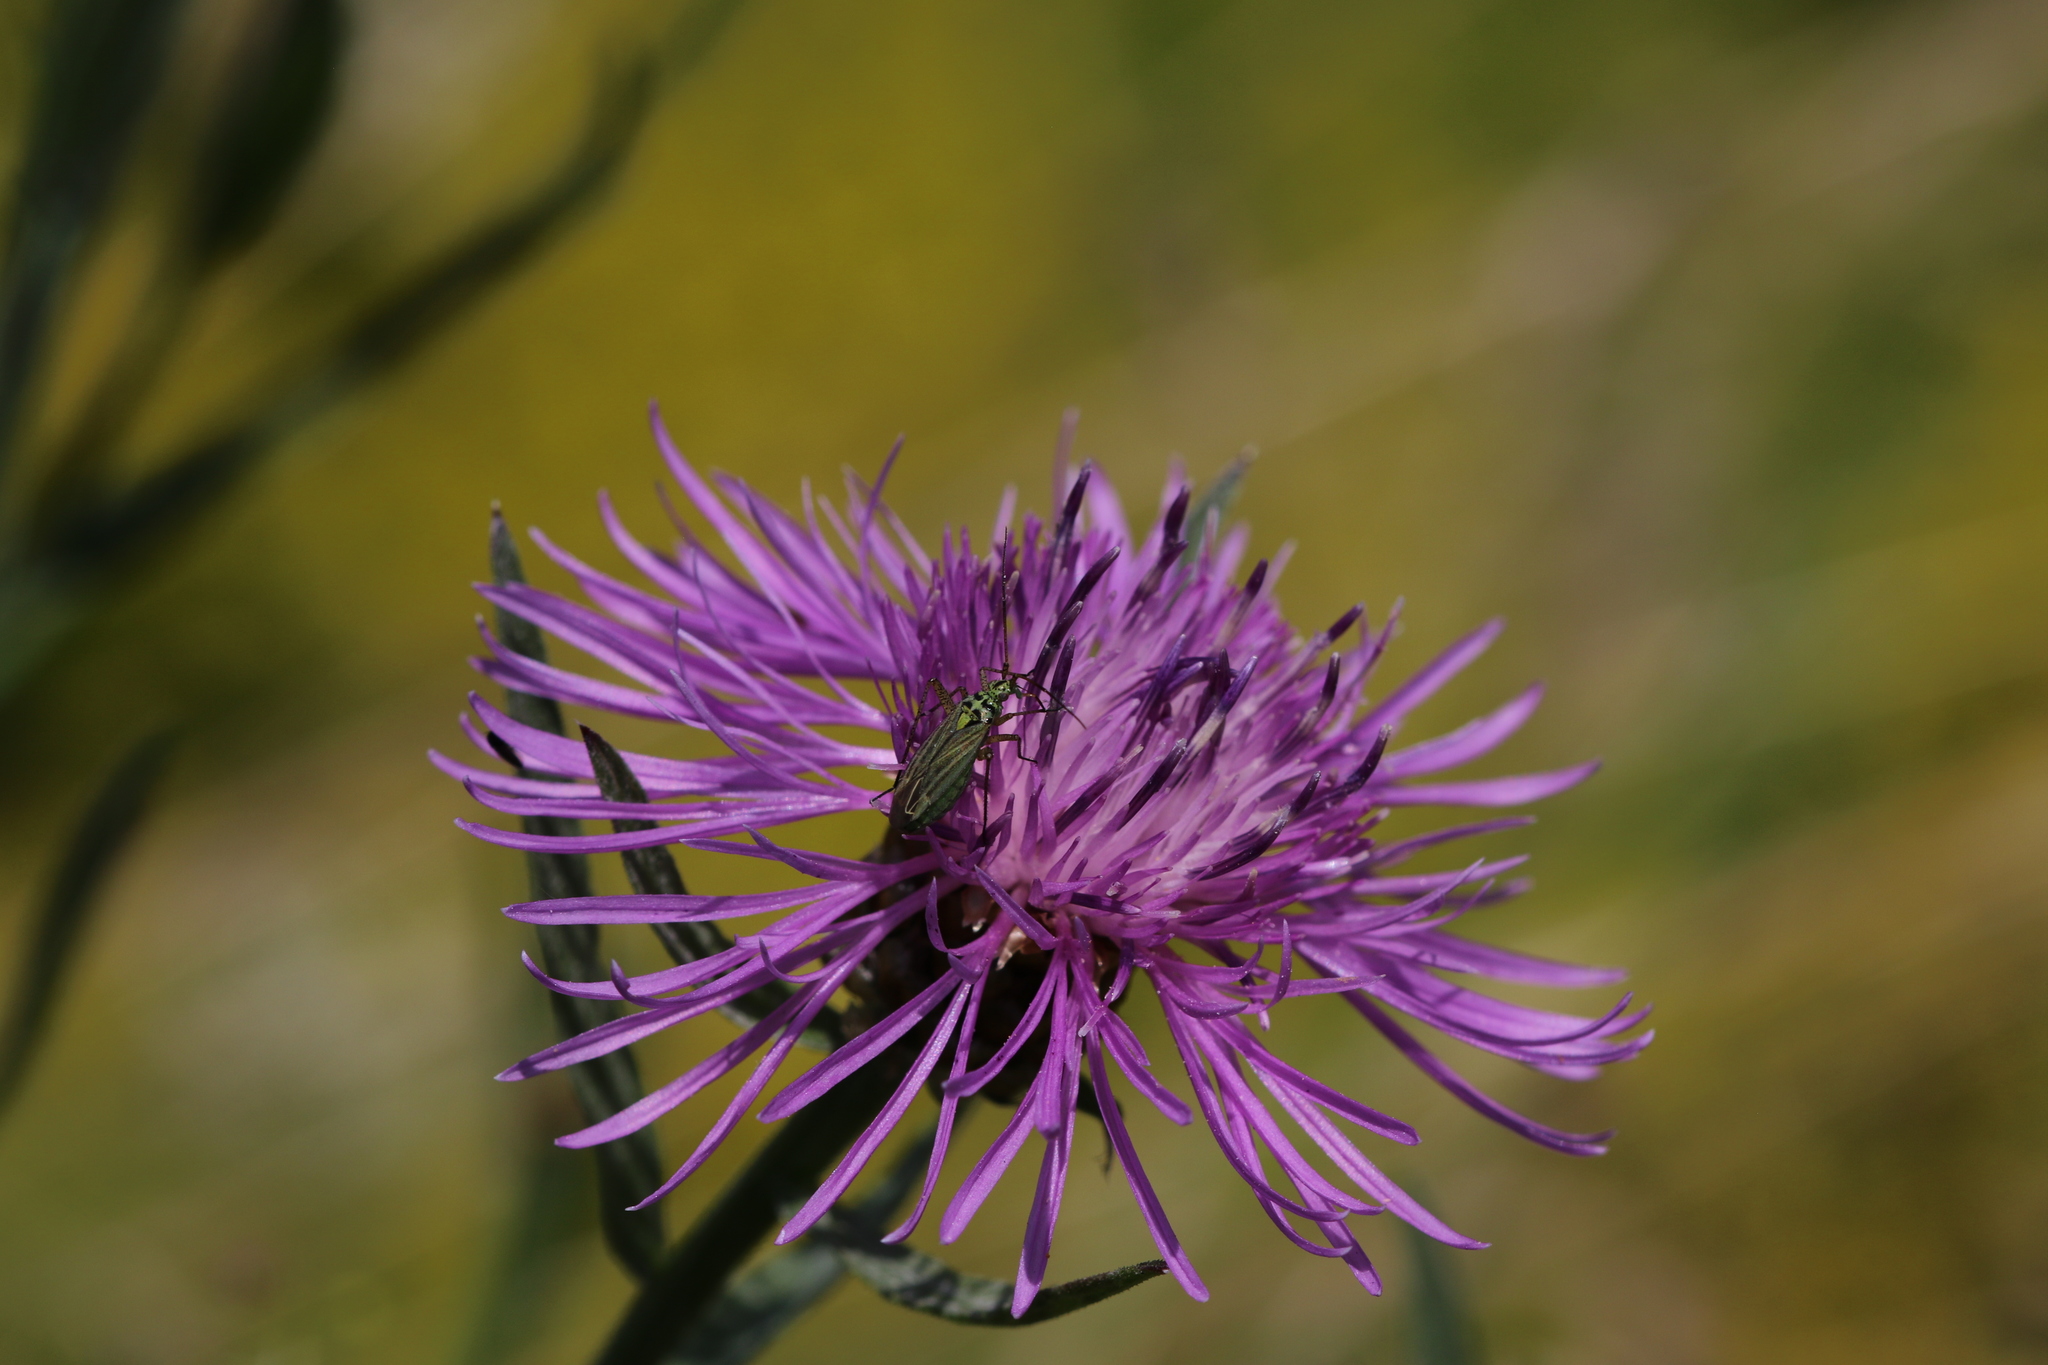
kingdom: Animalia
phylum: Arthropoda
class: Insecta
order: Hemiptera
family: Miridae
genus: Oncotylus
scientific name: Oncotylus viridiflavus
